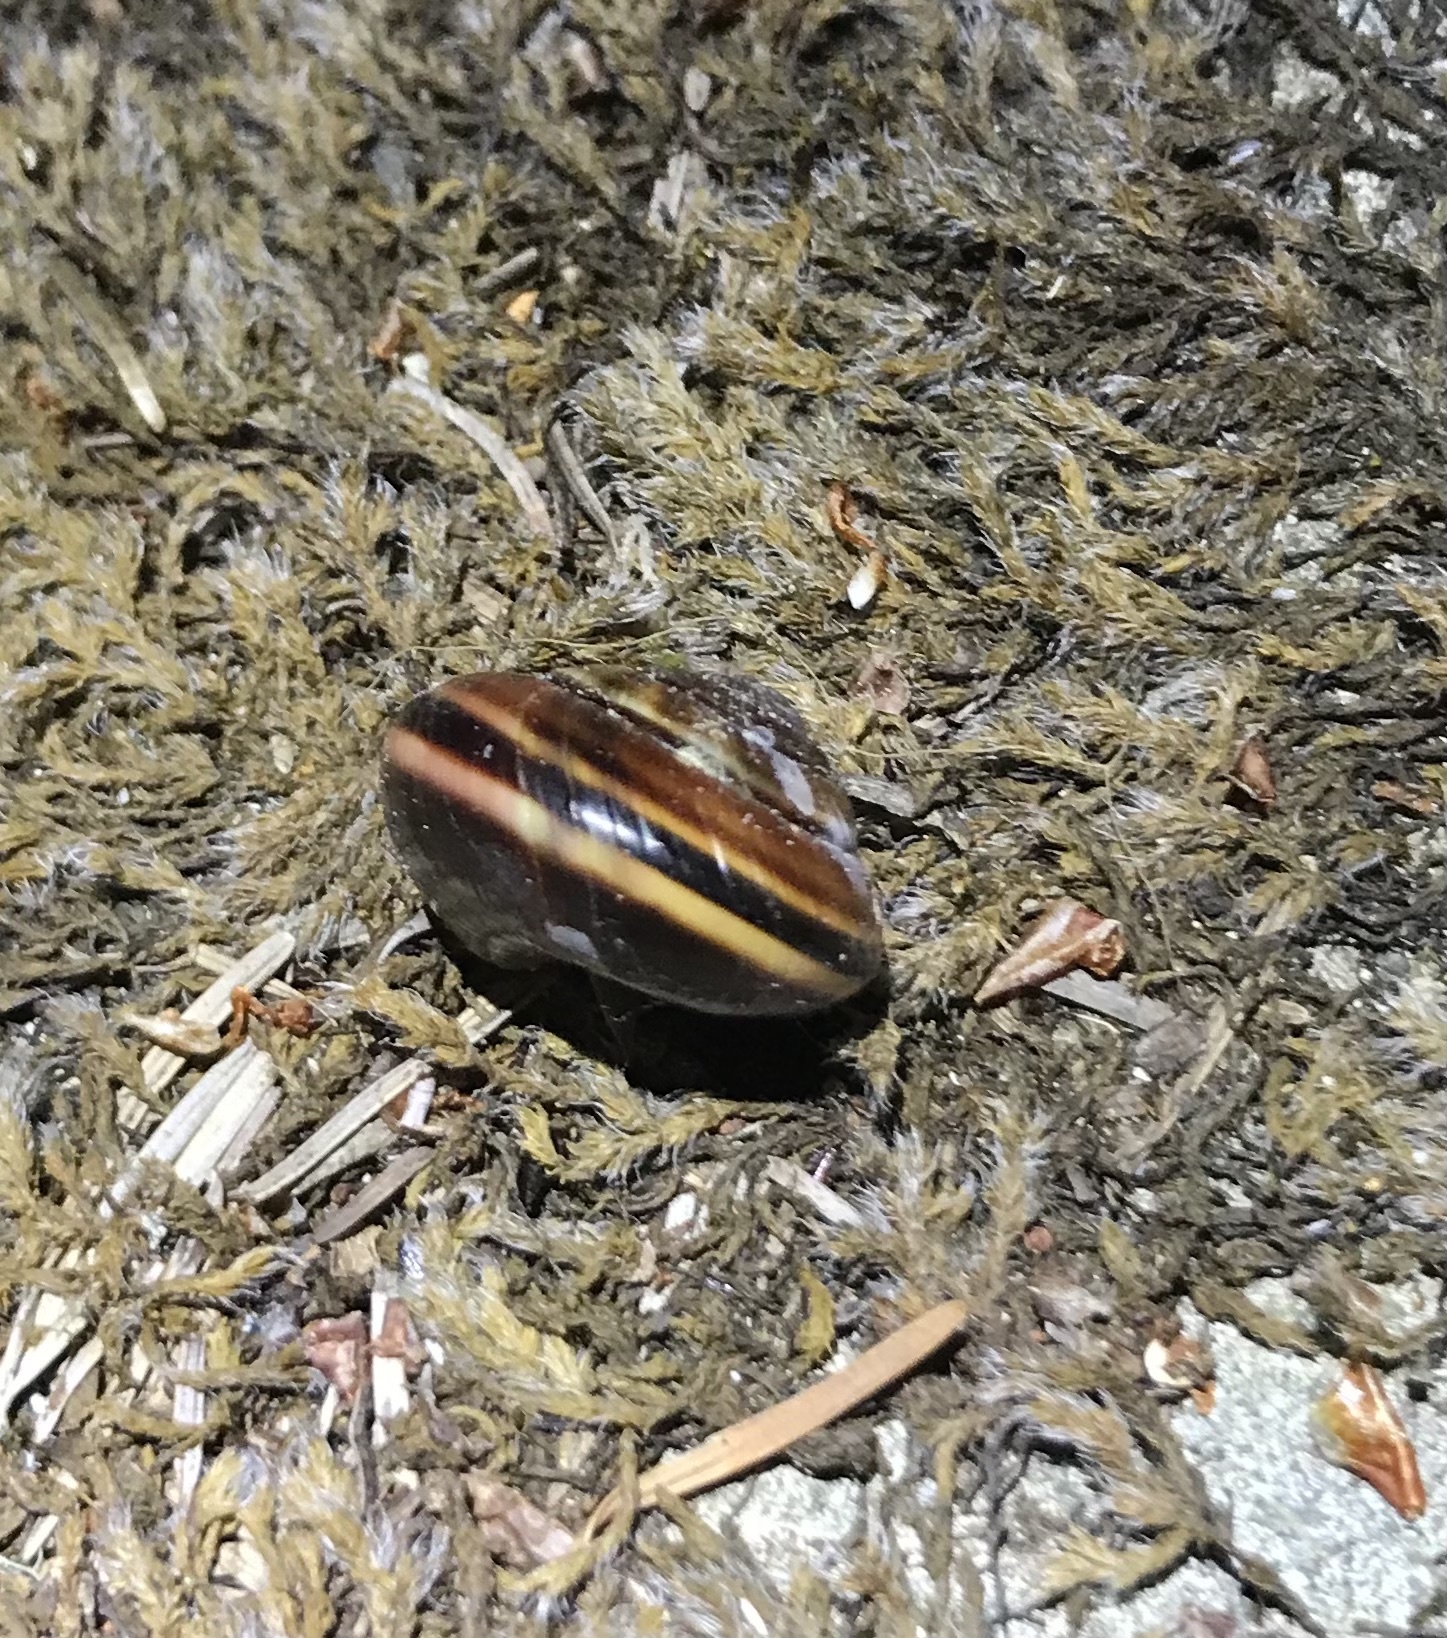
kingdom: Animalia
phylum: Mollusca
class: Gastropoda
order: Stylommatophora
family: Xanthonychidae
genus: Monadenia
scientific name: Monadenia fidelis
